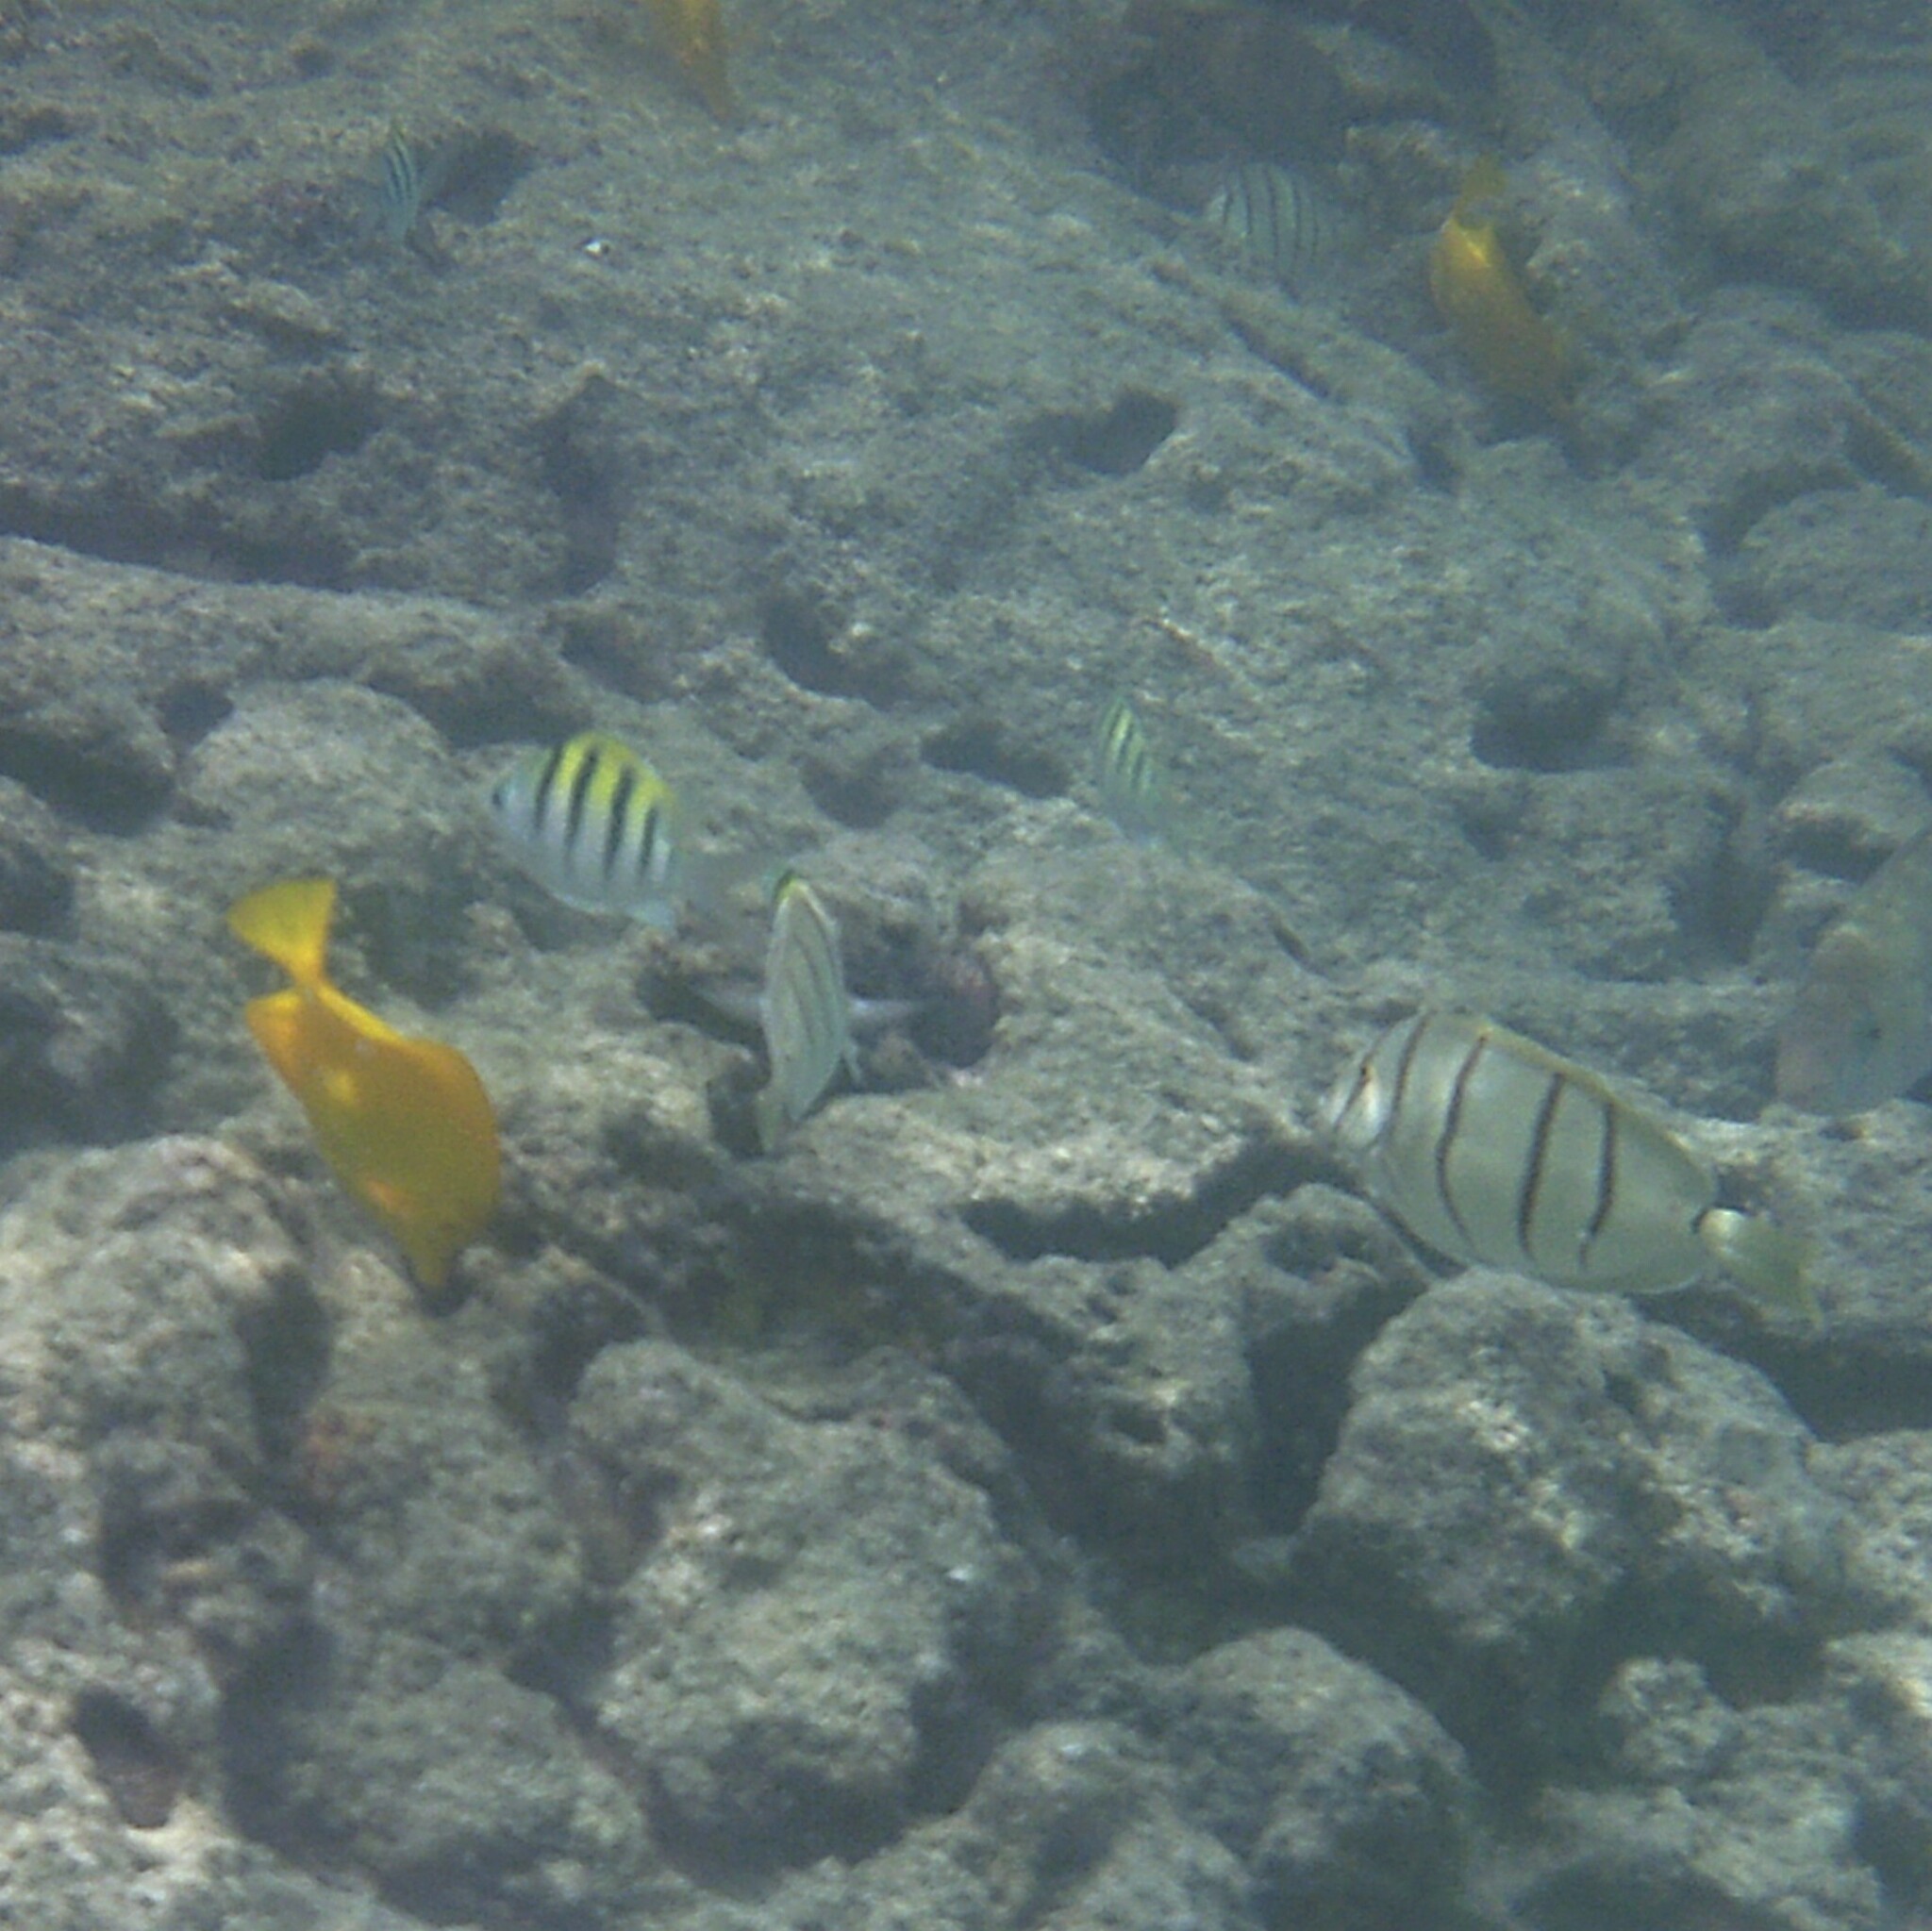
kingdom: Animalia
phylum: Chordata
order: Perciformes
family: Acanthuridae
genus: Acanthurus
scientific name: Acanthurus triostegus
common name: Convict surgeonfish
